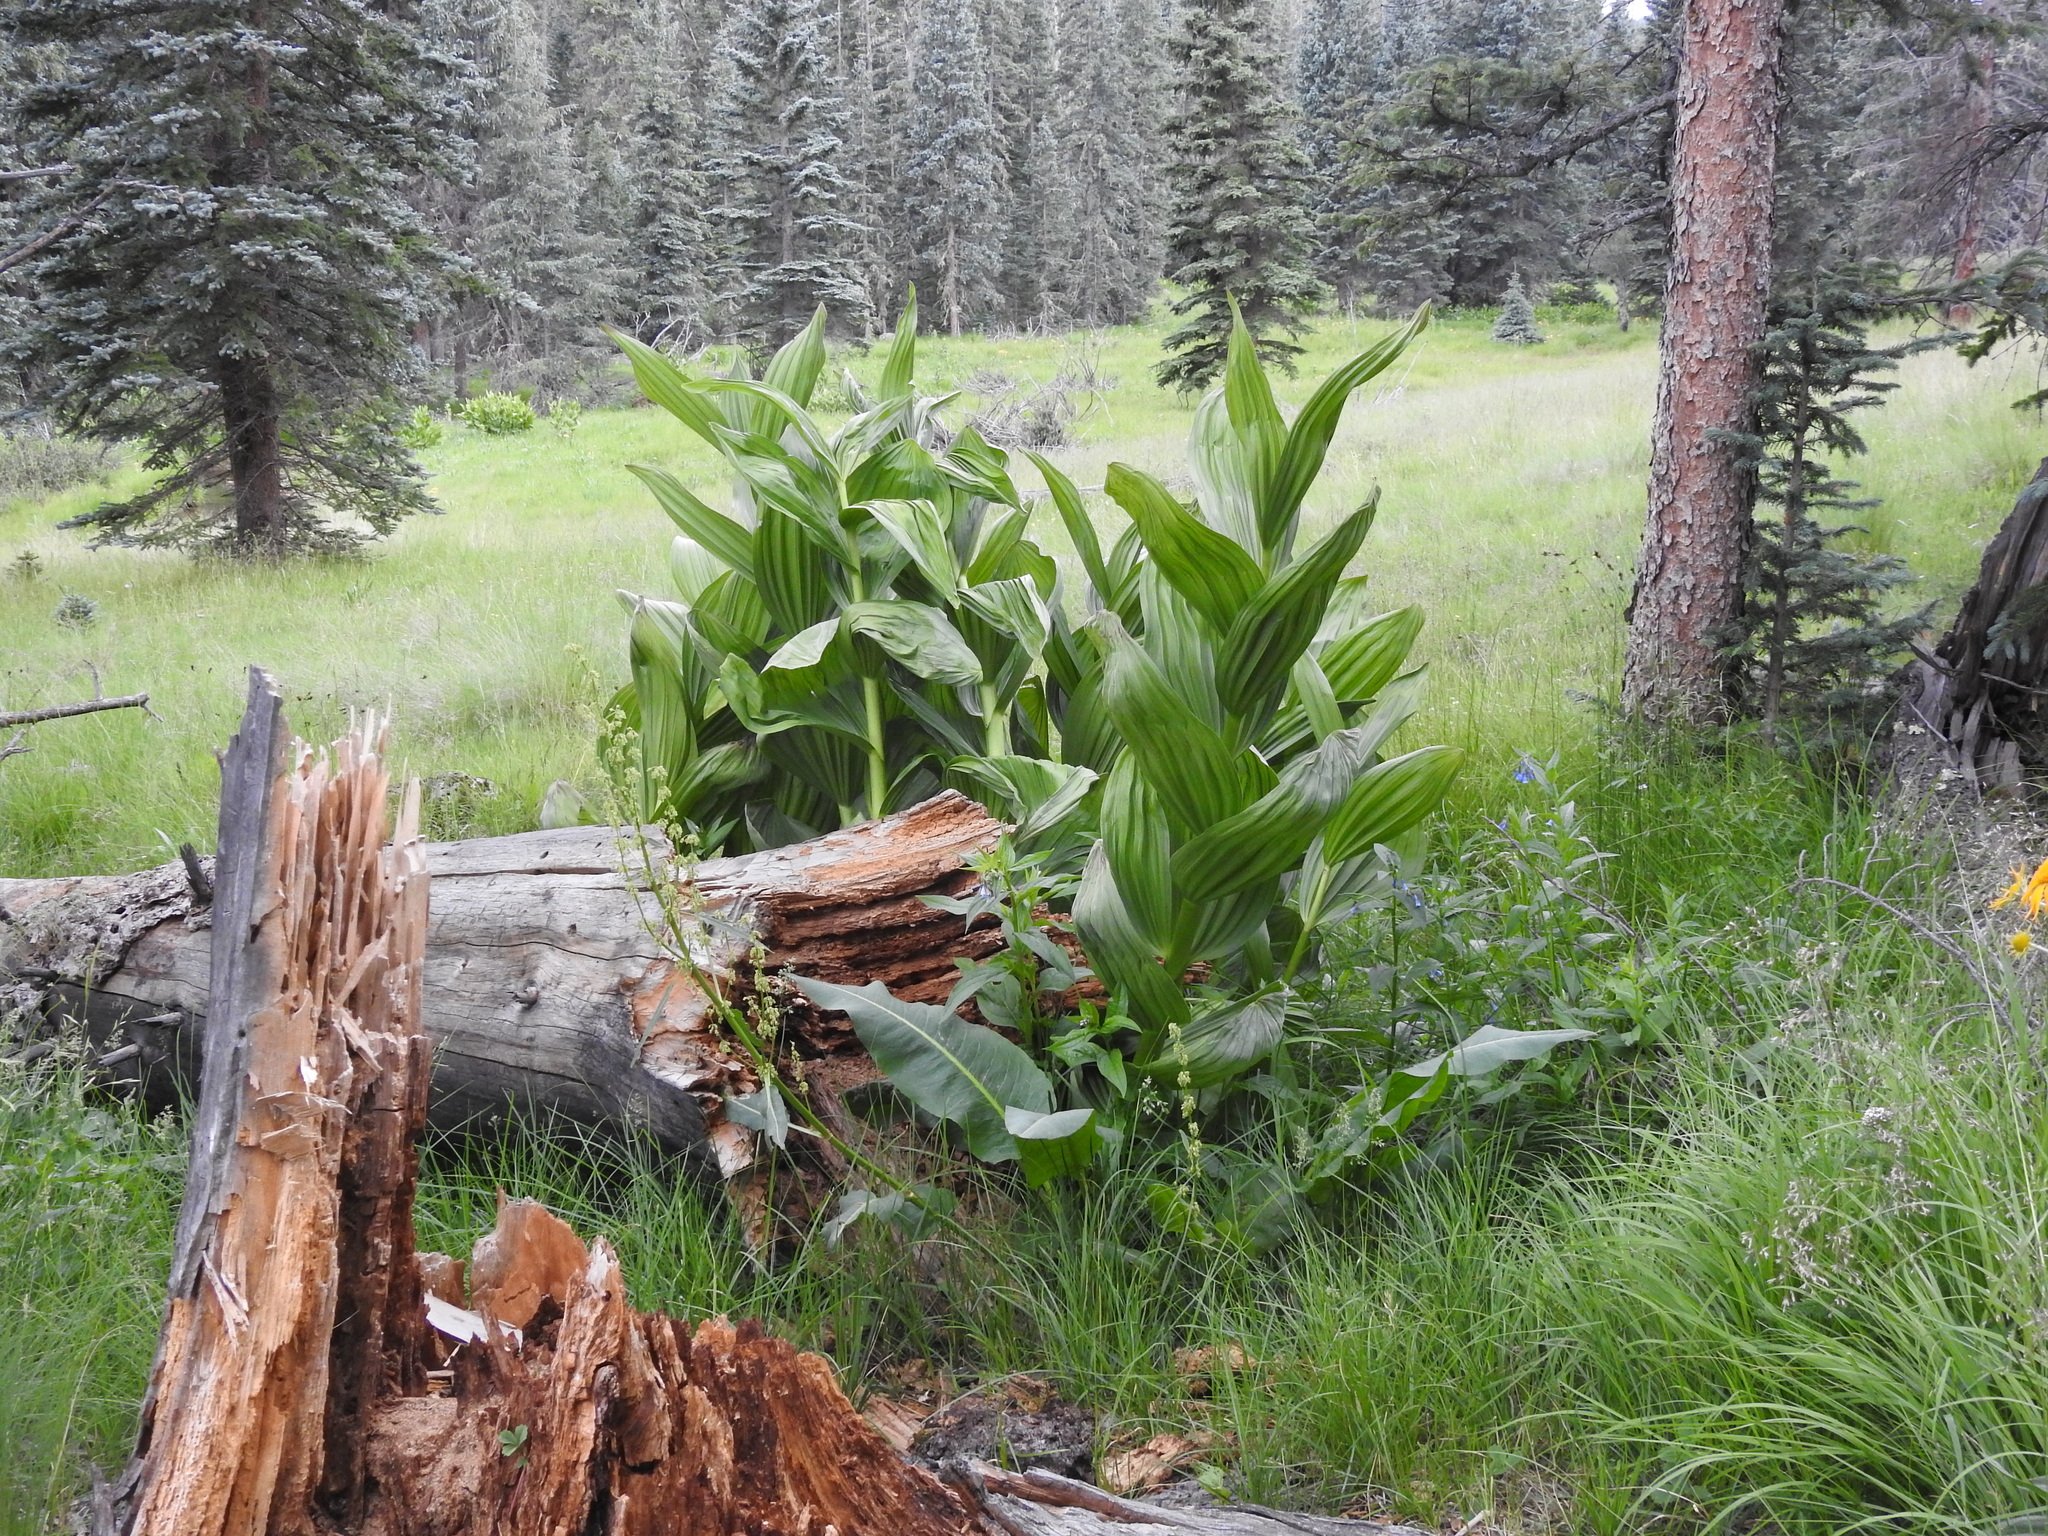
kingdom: Plantae
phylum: Tracheophyta
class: Liliopsida
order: Liliales
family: Melanthiaceae
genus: Veratrum
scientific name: Veratrum californicum
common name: California veratrum
